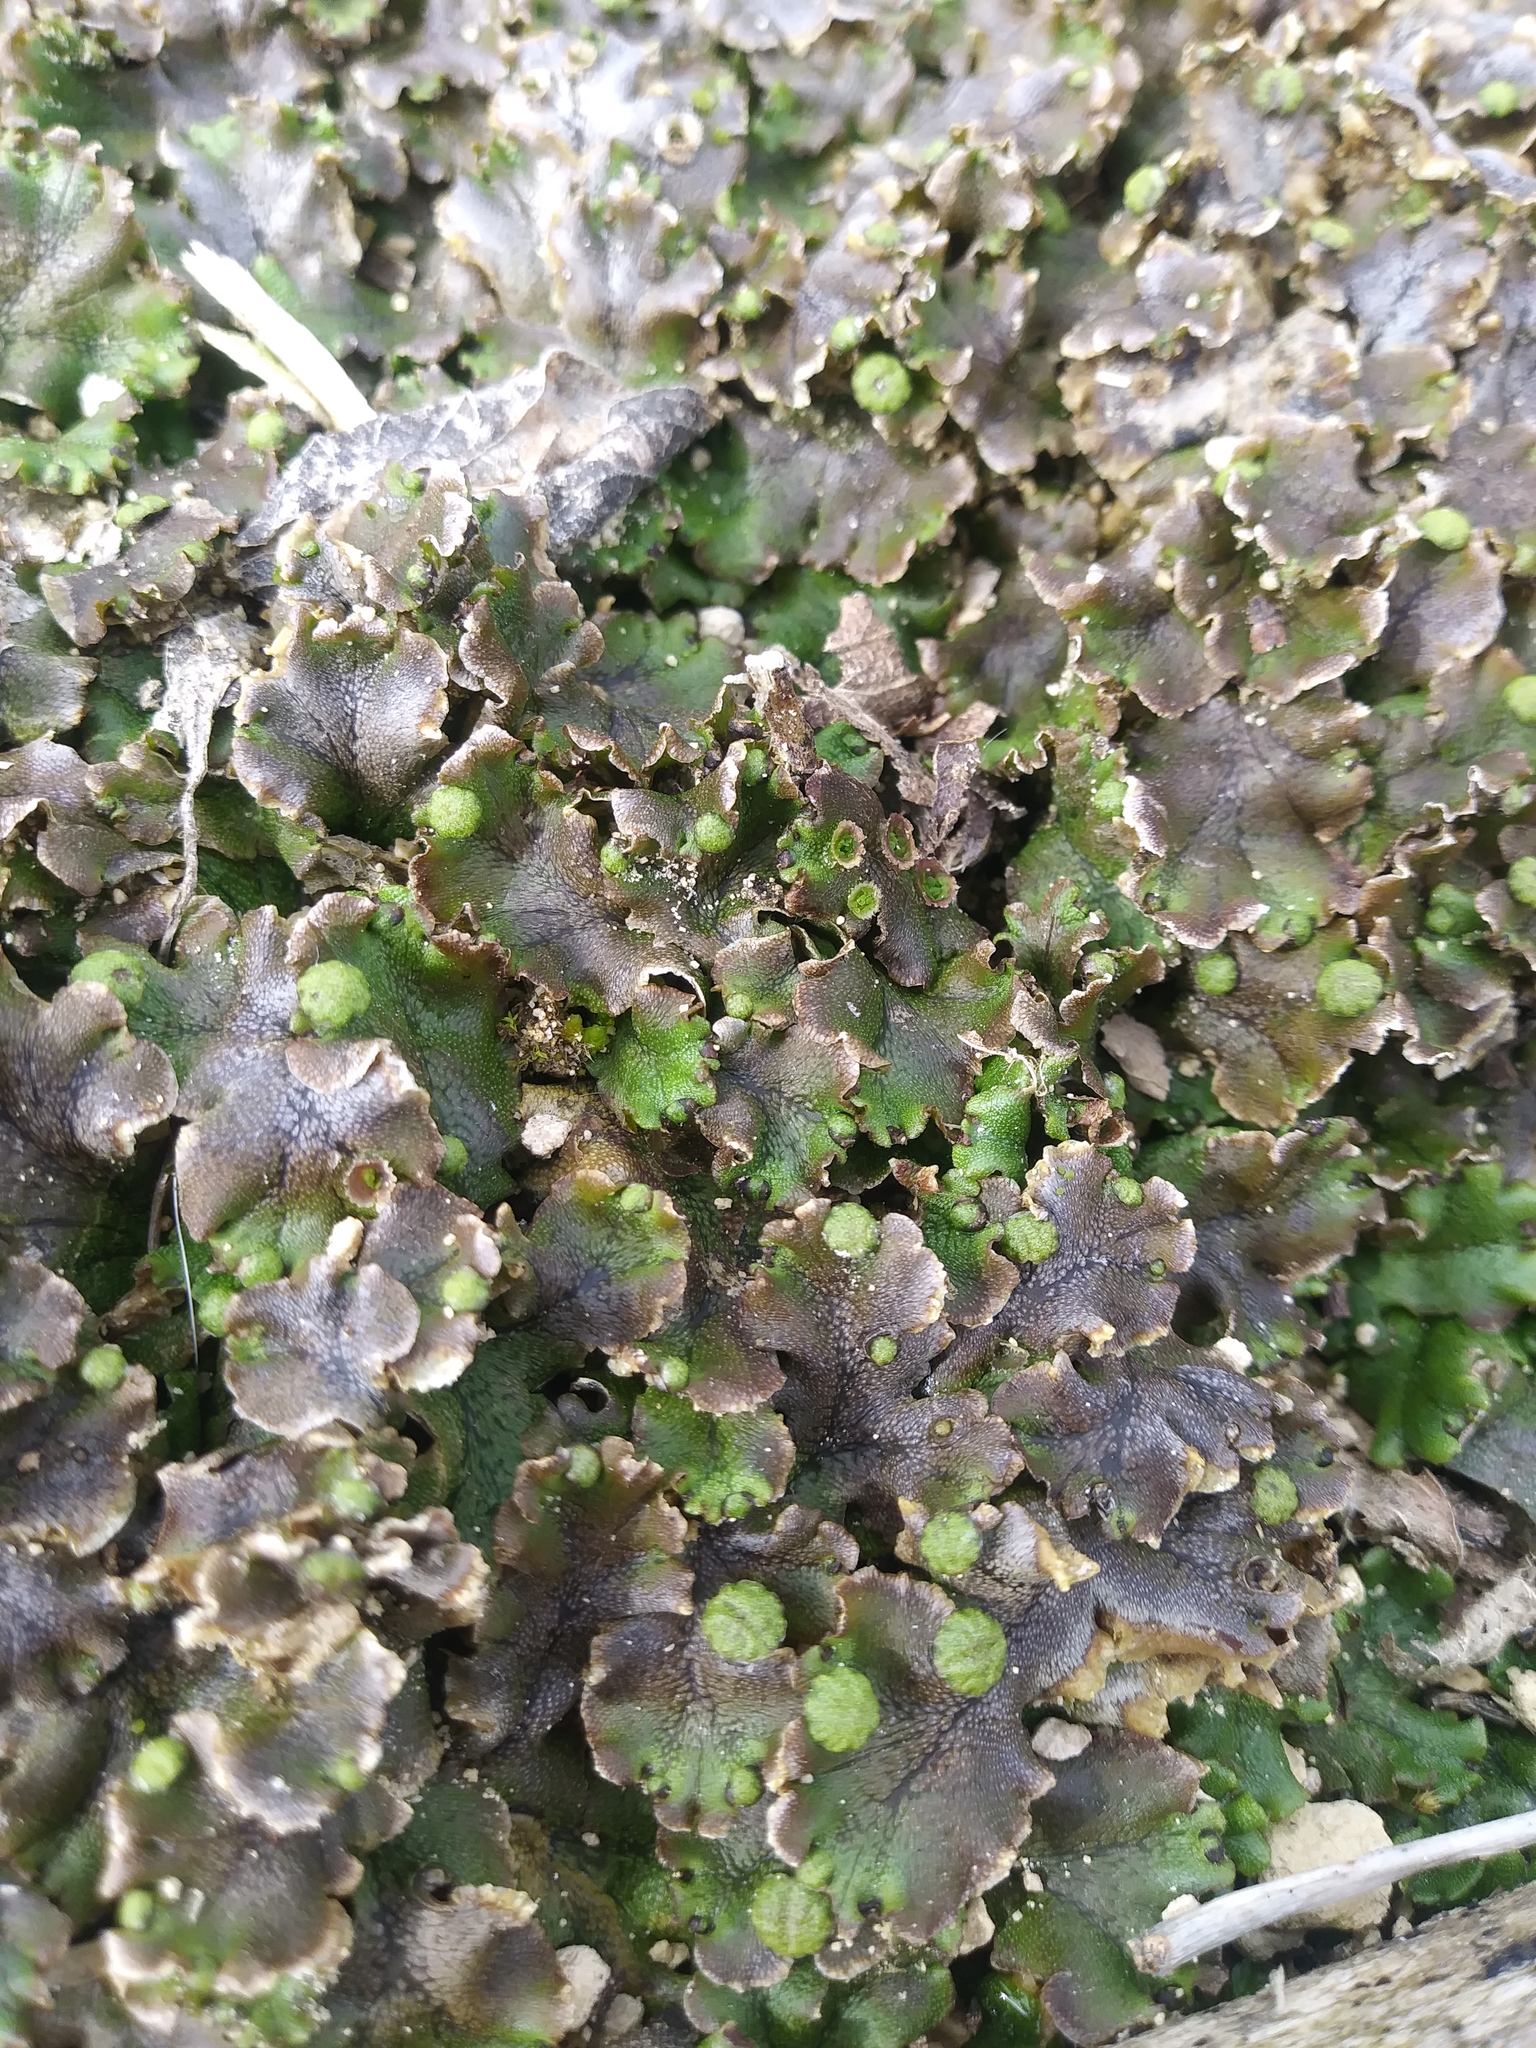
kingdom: Plantae
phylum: Marchantiophyta
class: Marchantiopsida
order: Marchantiales
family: Marchantiaceae
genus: Marchantia
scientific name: Marchantia polymorpha
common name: Common liverwort
